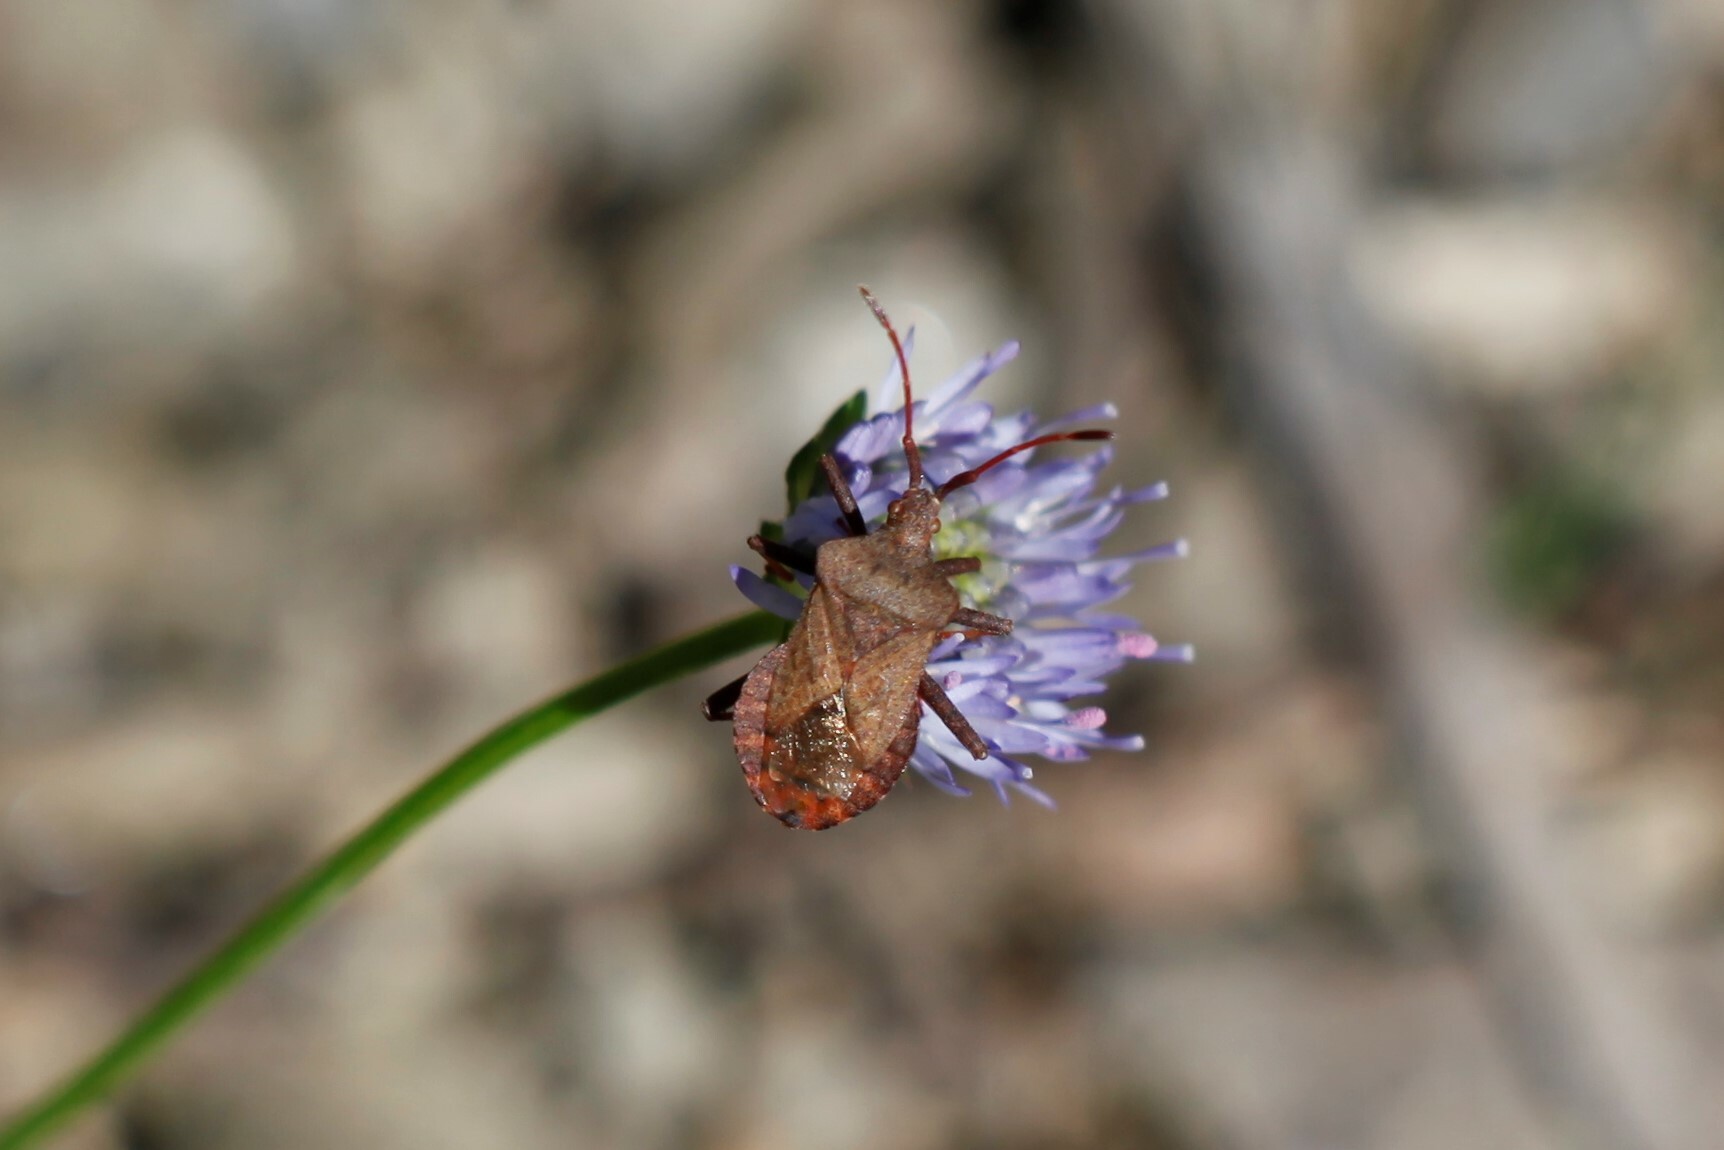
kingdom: Animalia
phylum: Arthropoda
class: Insecta
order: Hemiptera
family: Coreidae
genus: Coreus
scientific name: Coreus marginatus
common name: Dock bug
